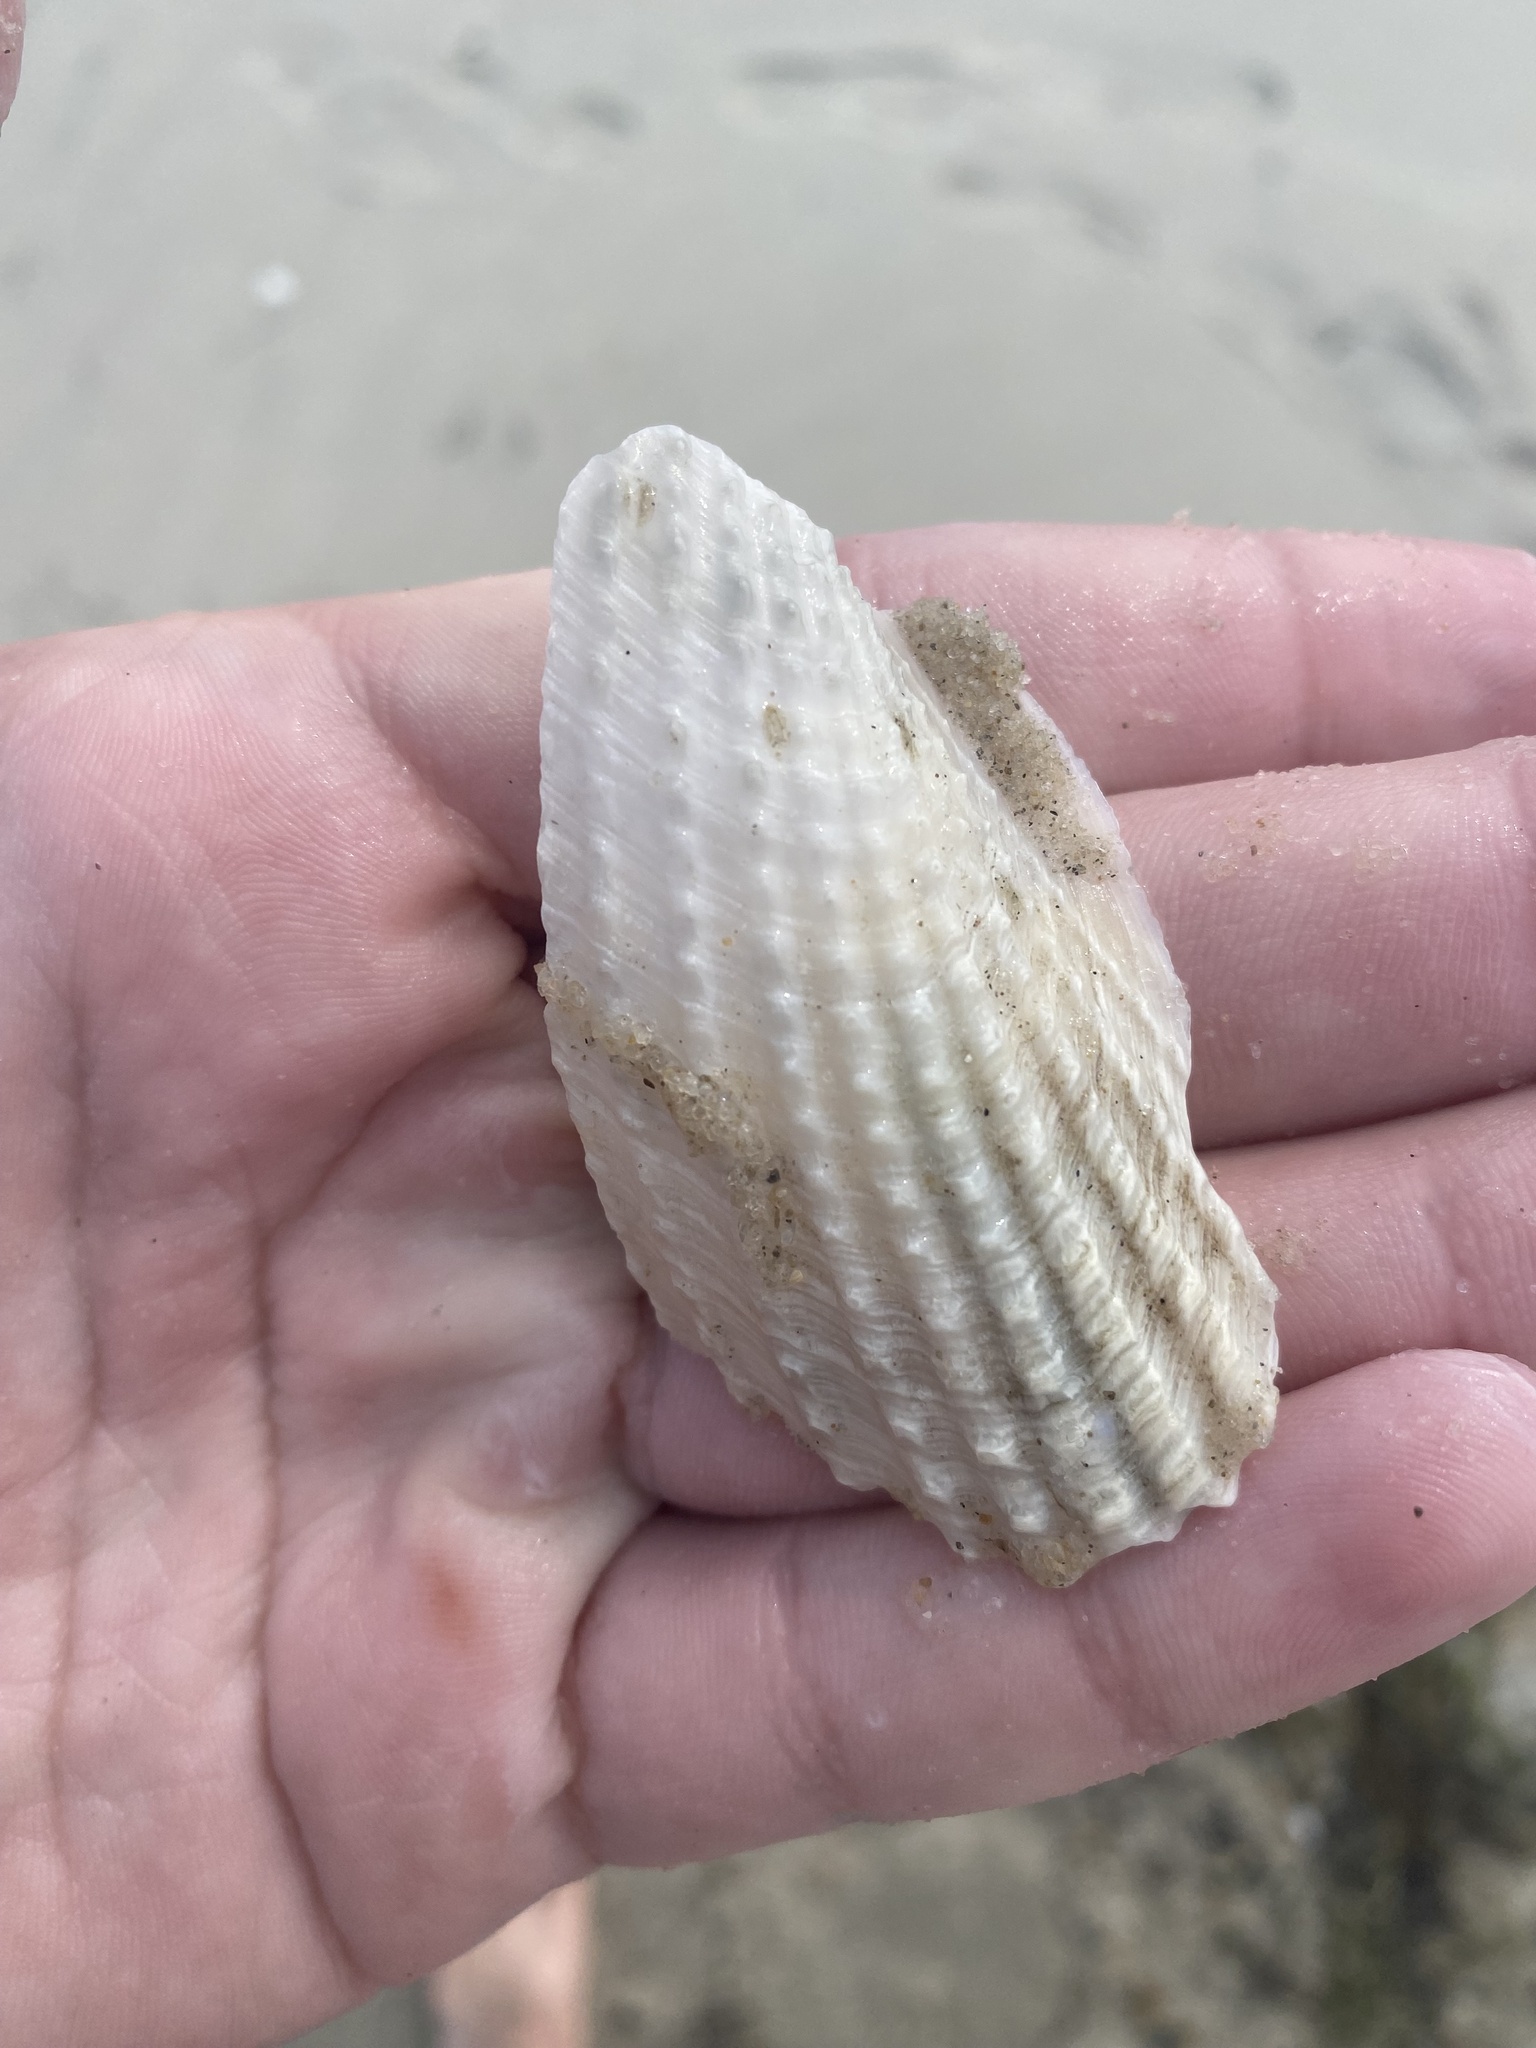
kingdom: Animalia
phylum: Mollusca
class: Bivalvia
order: Myida
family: Pholadidae
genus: Cyrtopleura
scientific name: Cyrtopleura costata
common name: Angel wing
